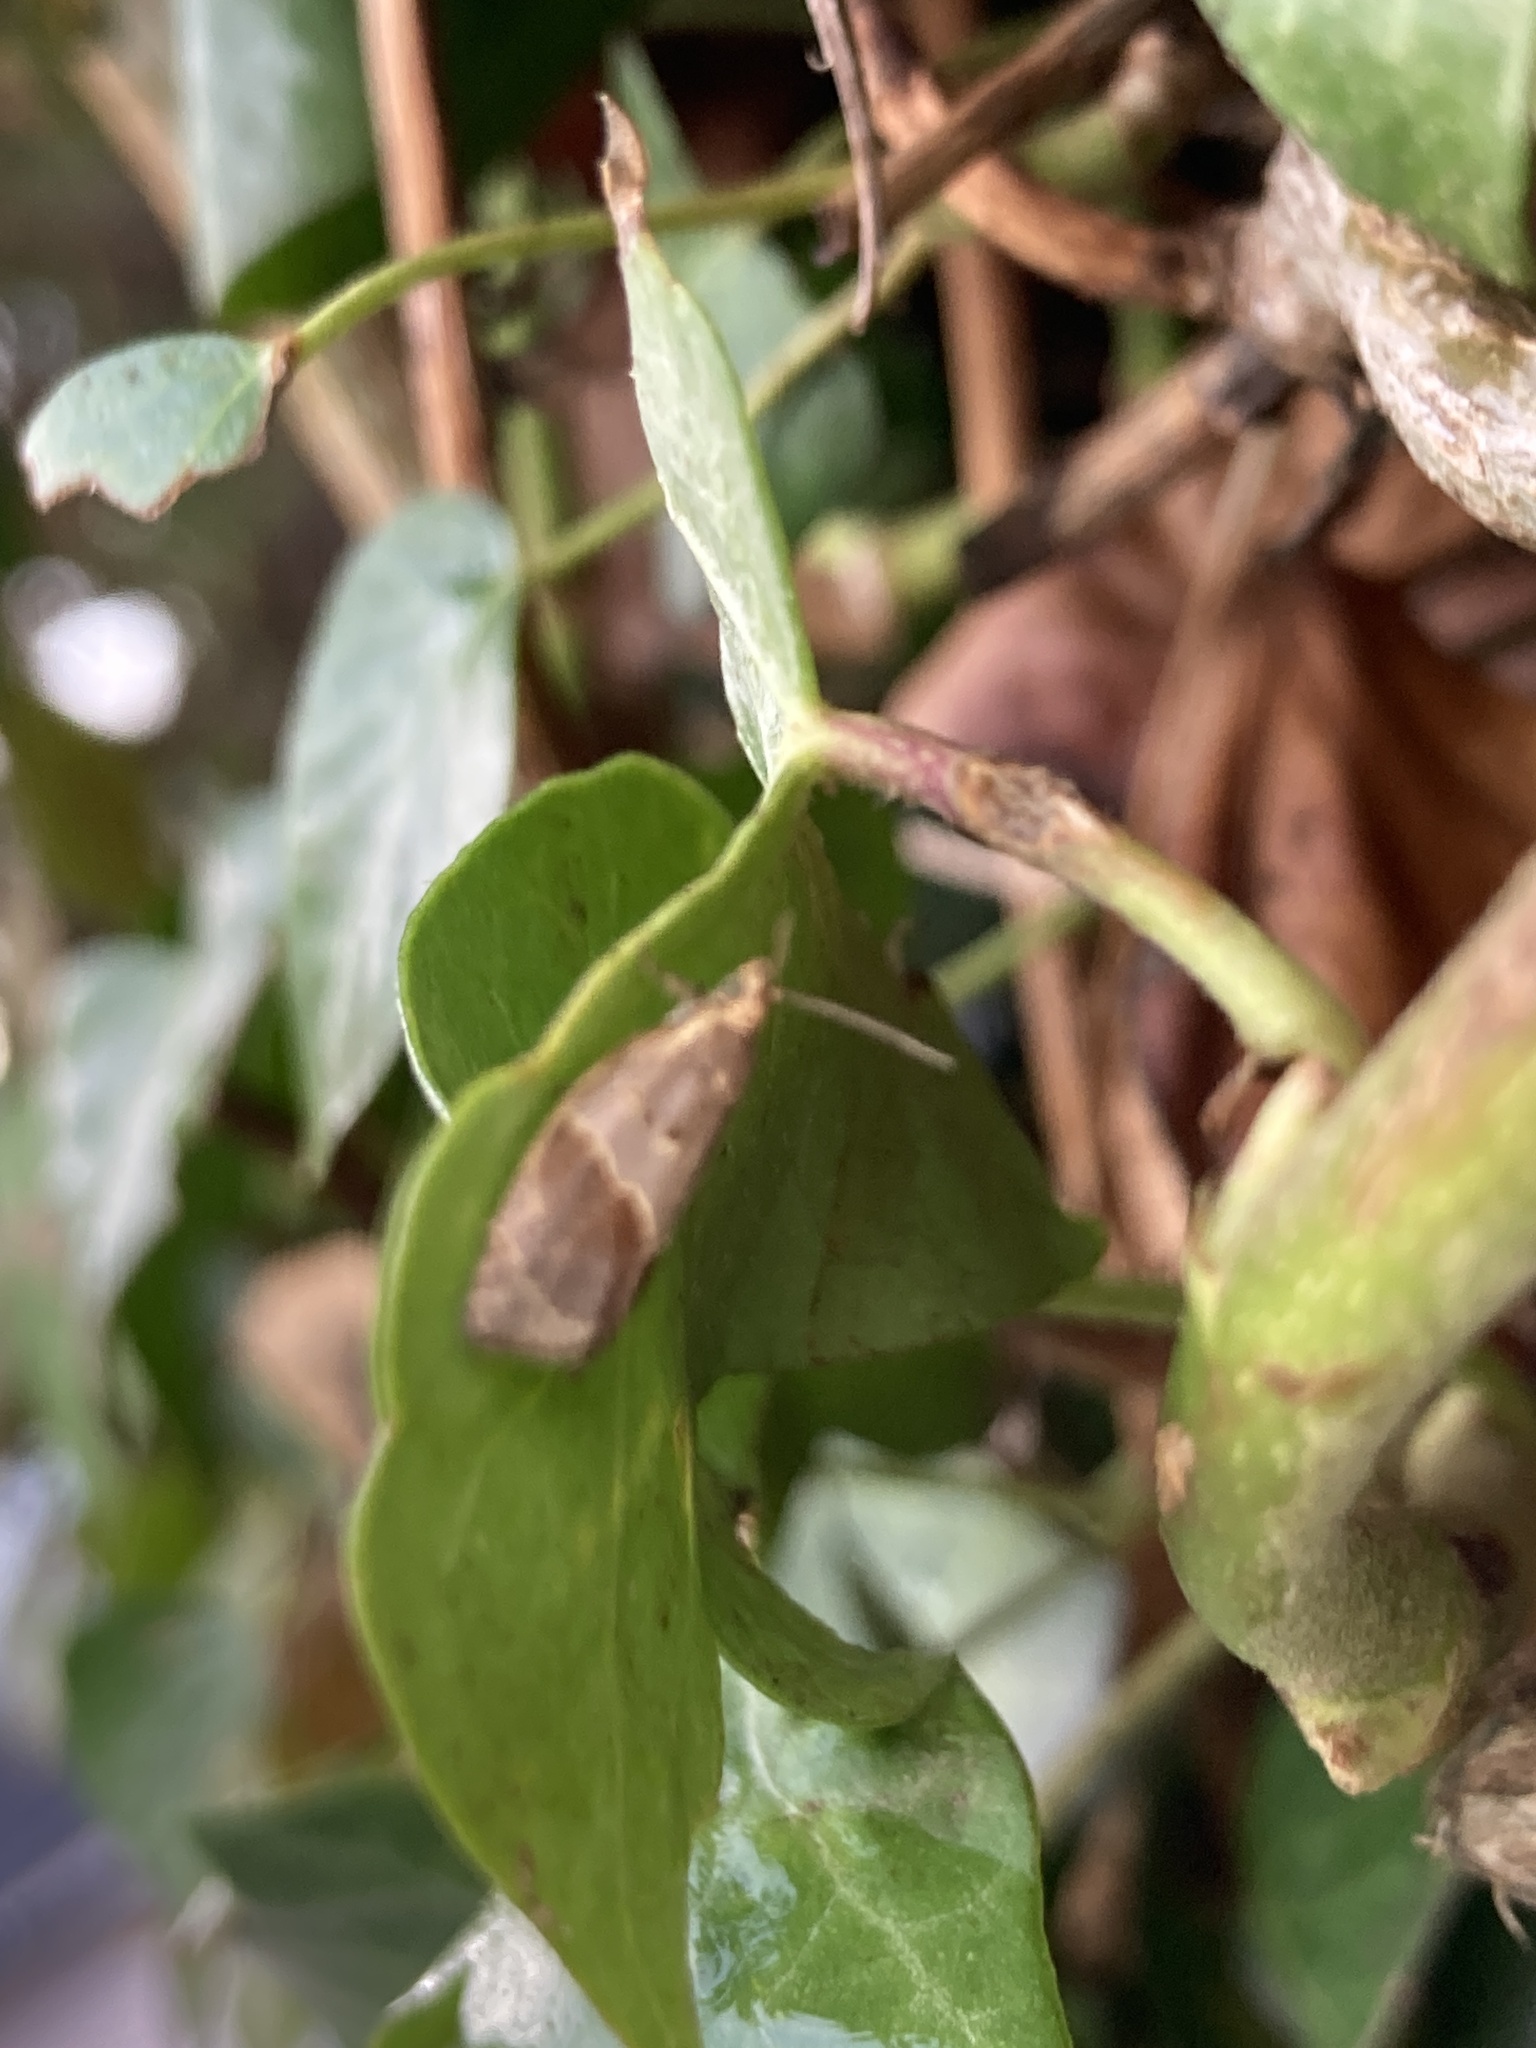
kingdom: Animalia
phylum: Arthropoda
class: Insecta
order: Lepidoptera
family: Tortricidae
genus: Clepsis
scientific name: Clepsis dumicolana
